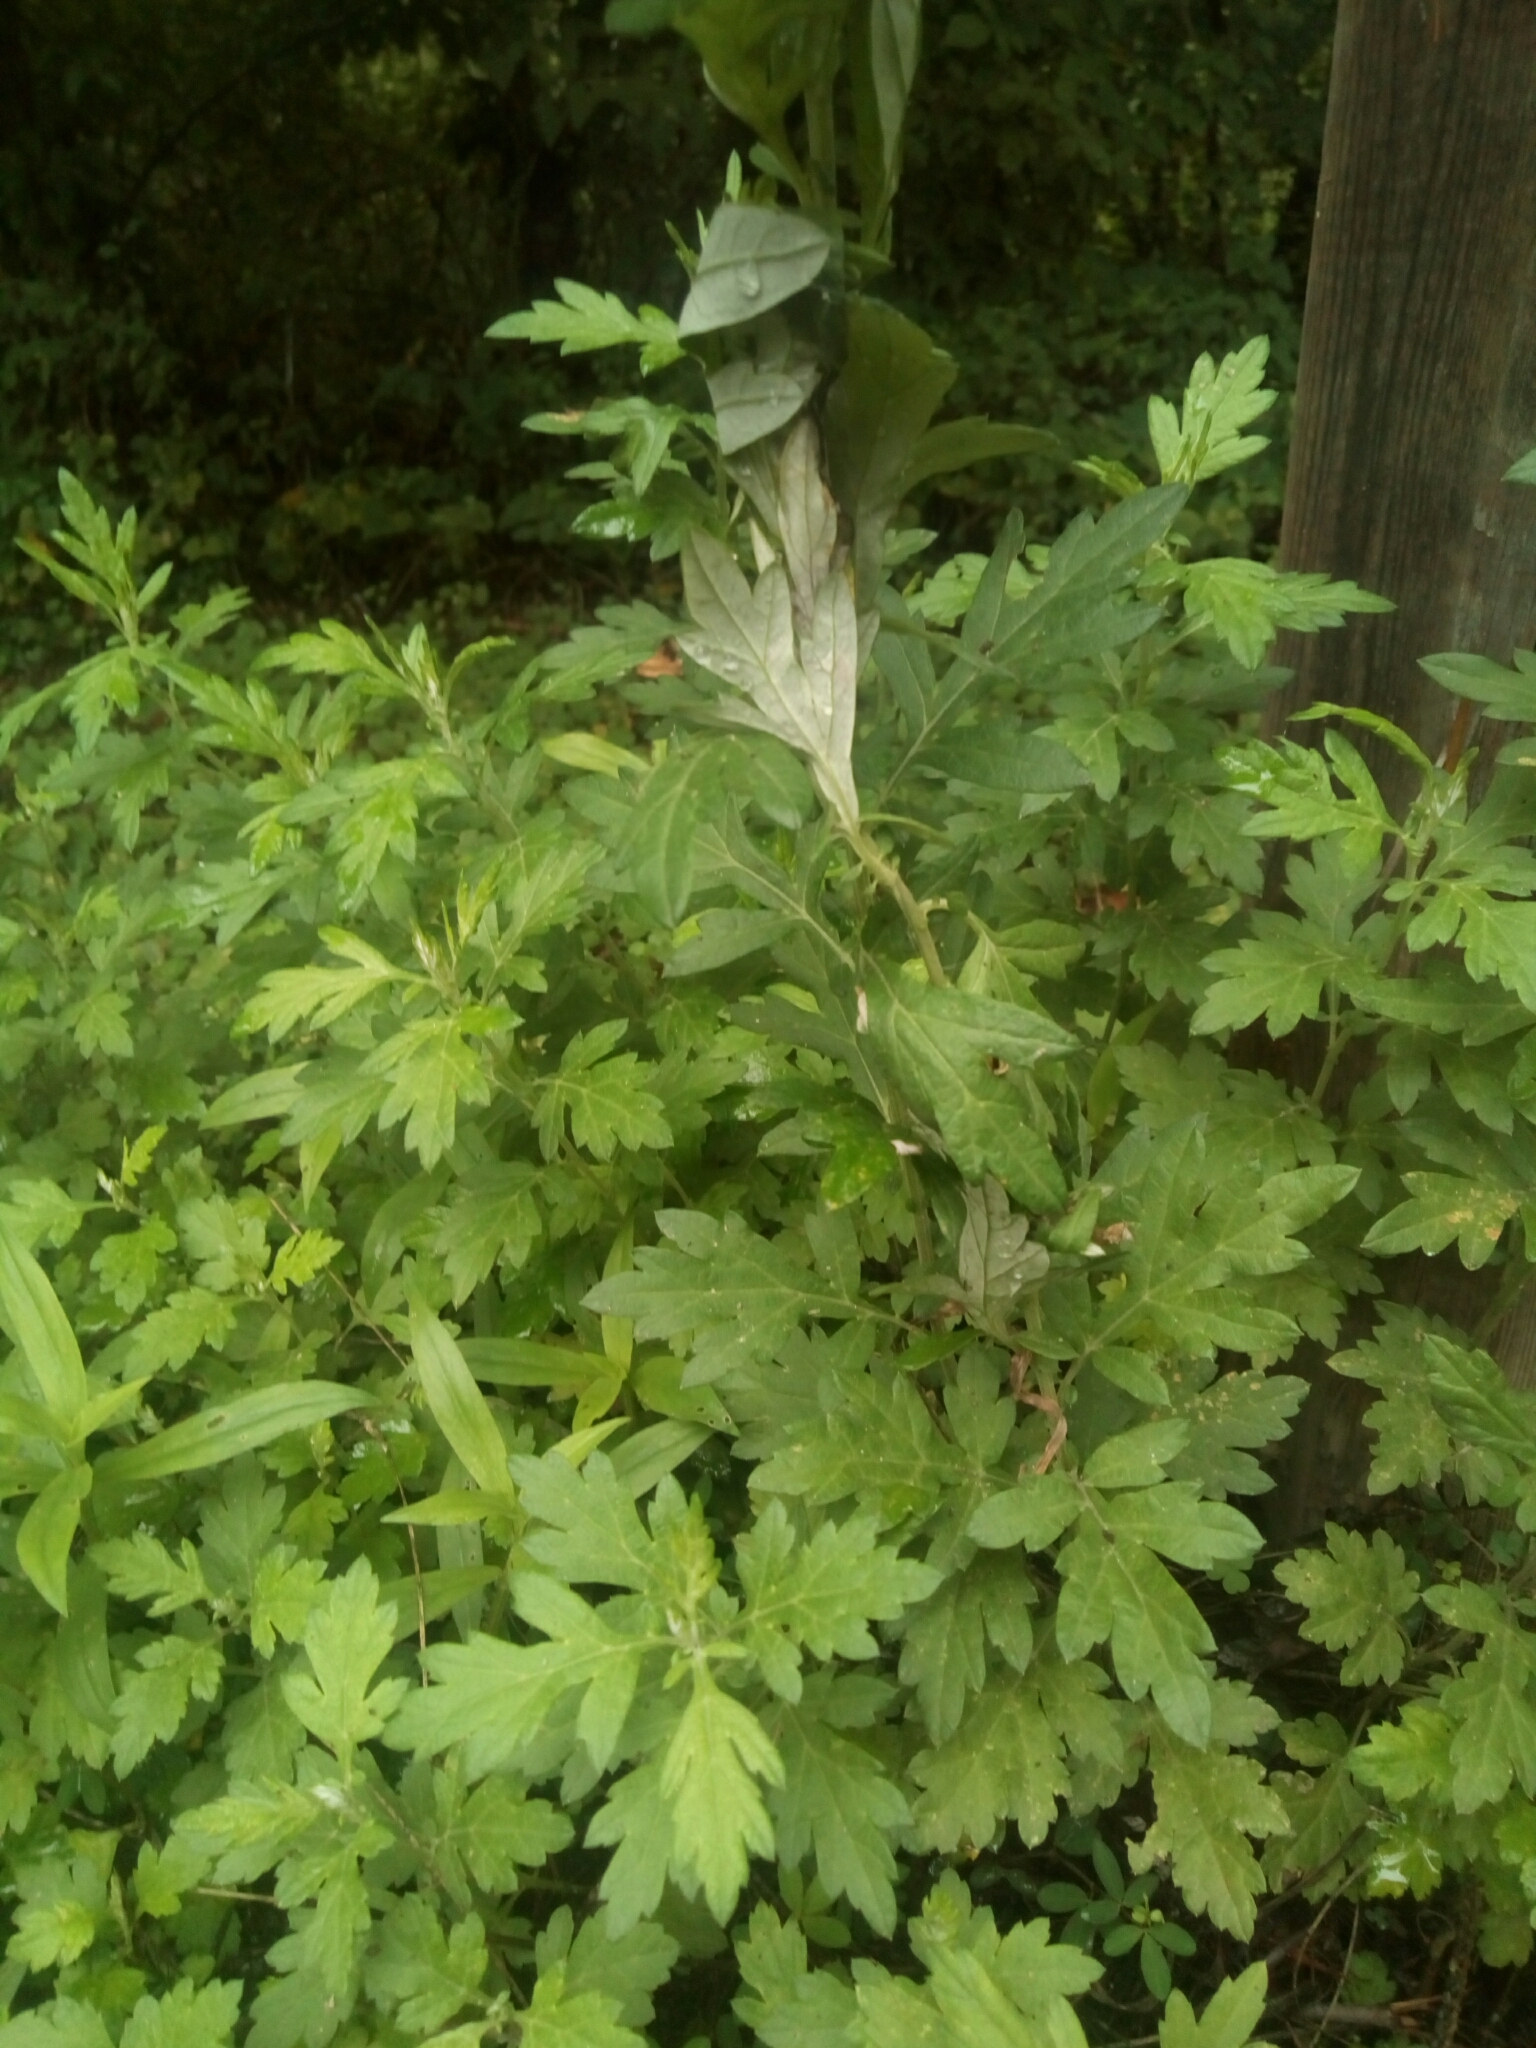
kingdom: Plantae
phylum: Tracheophyta
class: Magnoliopsida
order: Asterales
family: Asteraceae
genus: Artemisia
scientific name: Artemisia vulgaris
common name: Mugwort
